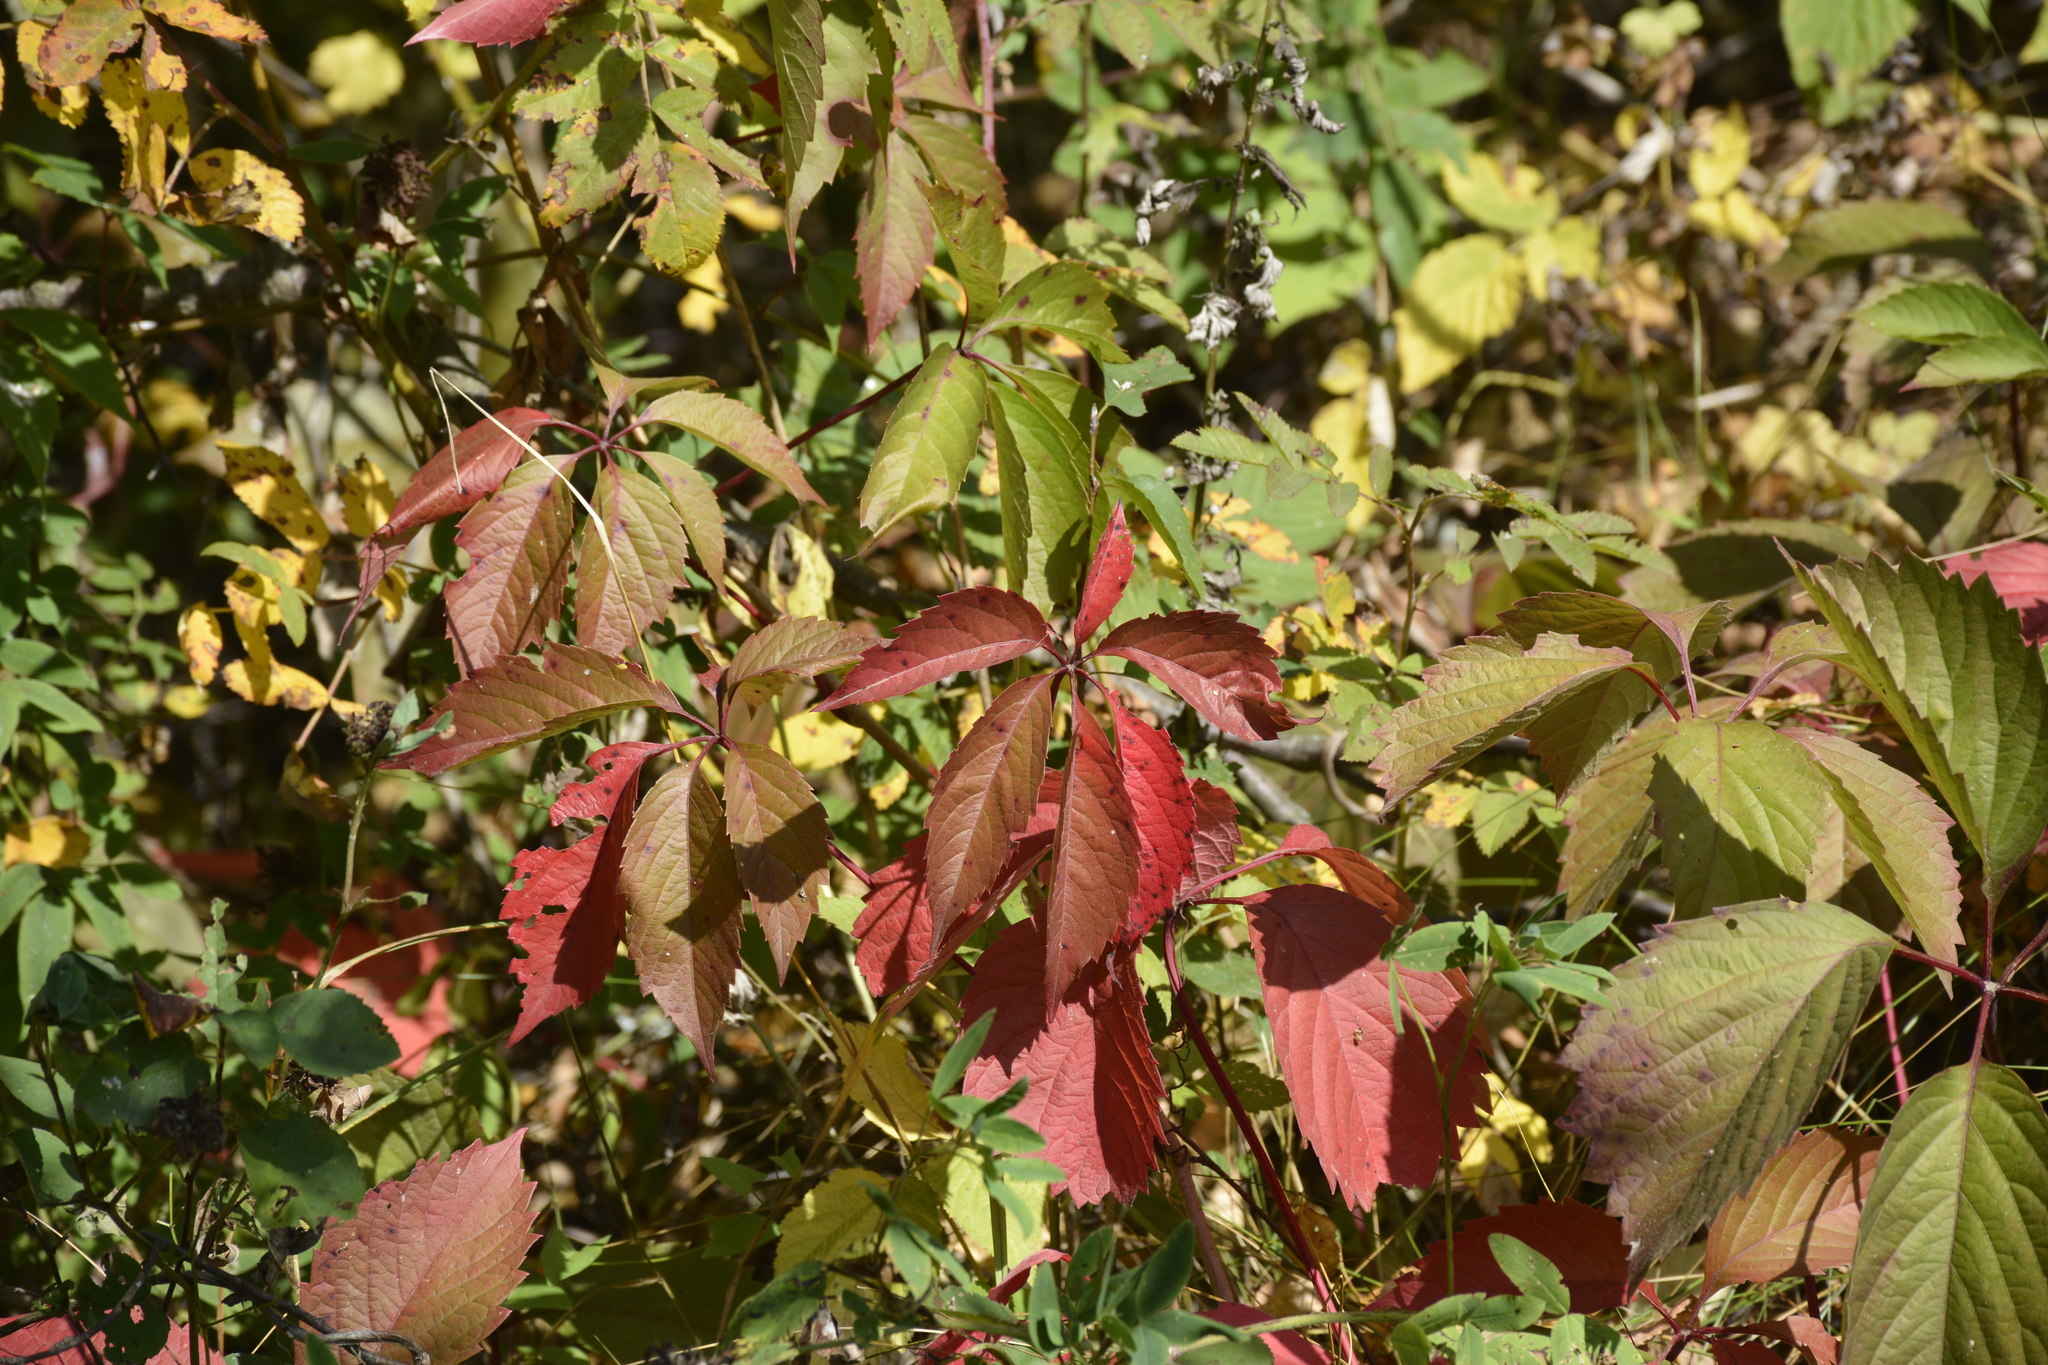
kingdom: Plantae
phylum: Tracheophyta
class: Magnoliopsida
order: Vitales
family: Vitaceae
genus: Parthenocissus
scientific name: Parthenocissus inserta
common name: False virginia-creeper
